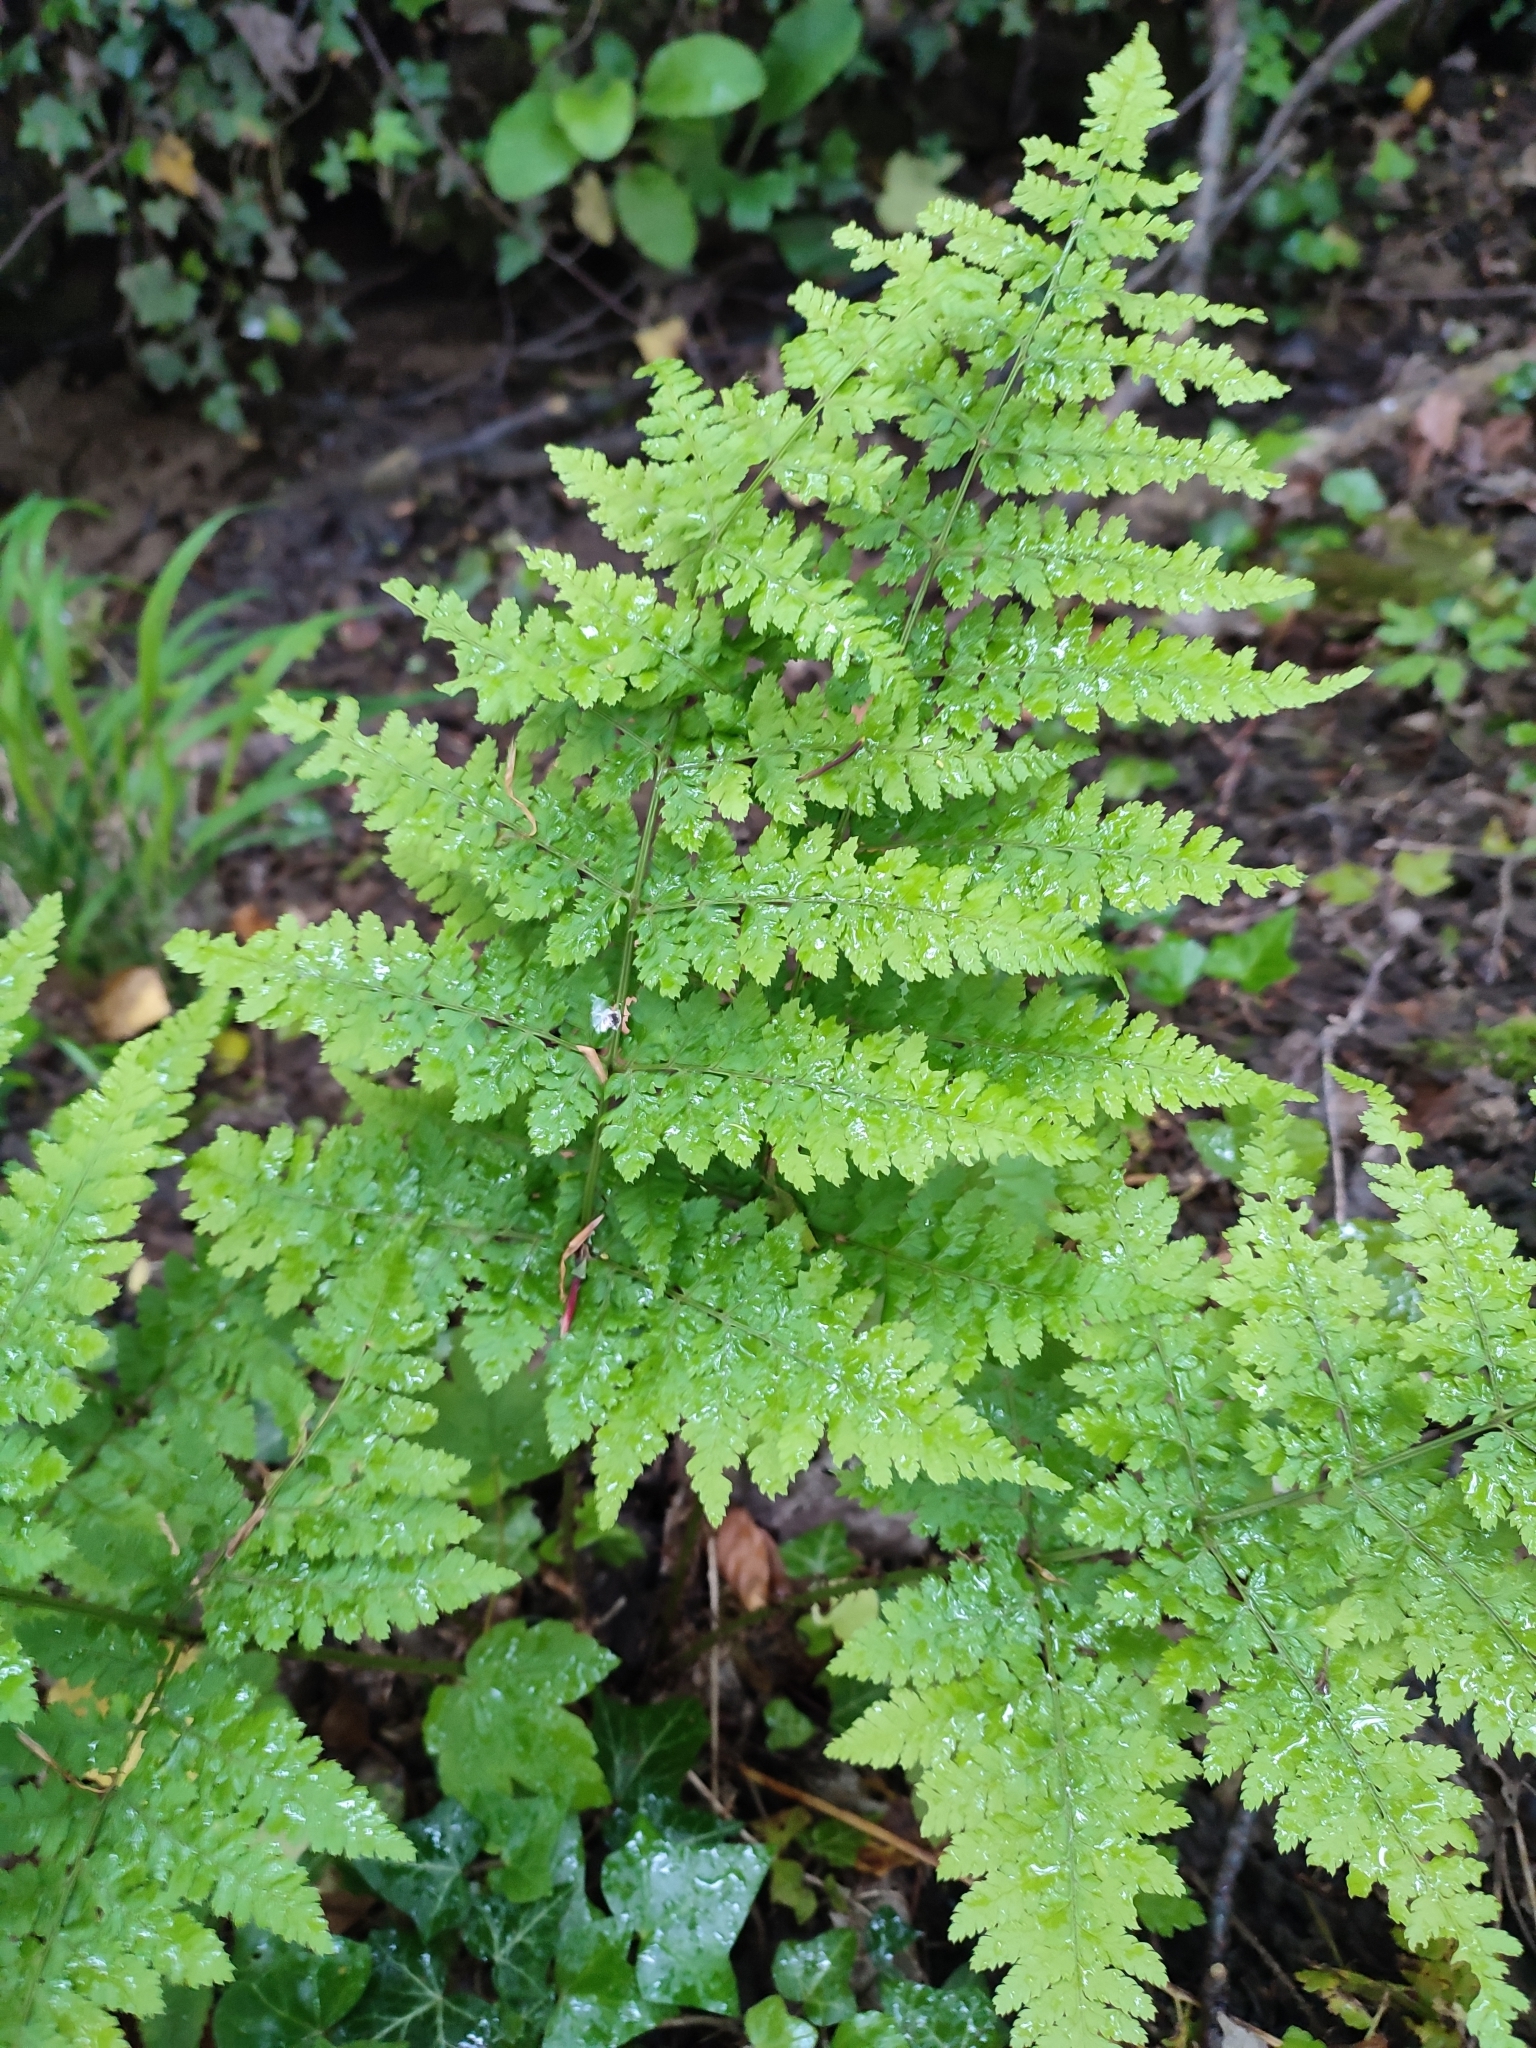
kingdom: Plantae
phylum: Tracheophyta
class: Polypodiopsida
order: Polypodiales
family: Dryopteridaceae
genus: Dryopteris
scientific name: Dryopteris dilatata
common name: Broad buckler-fern
